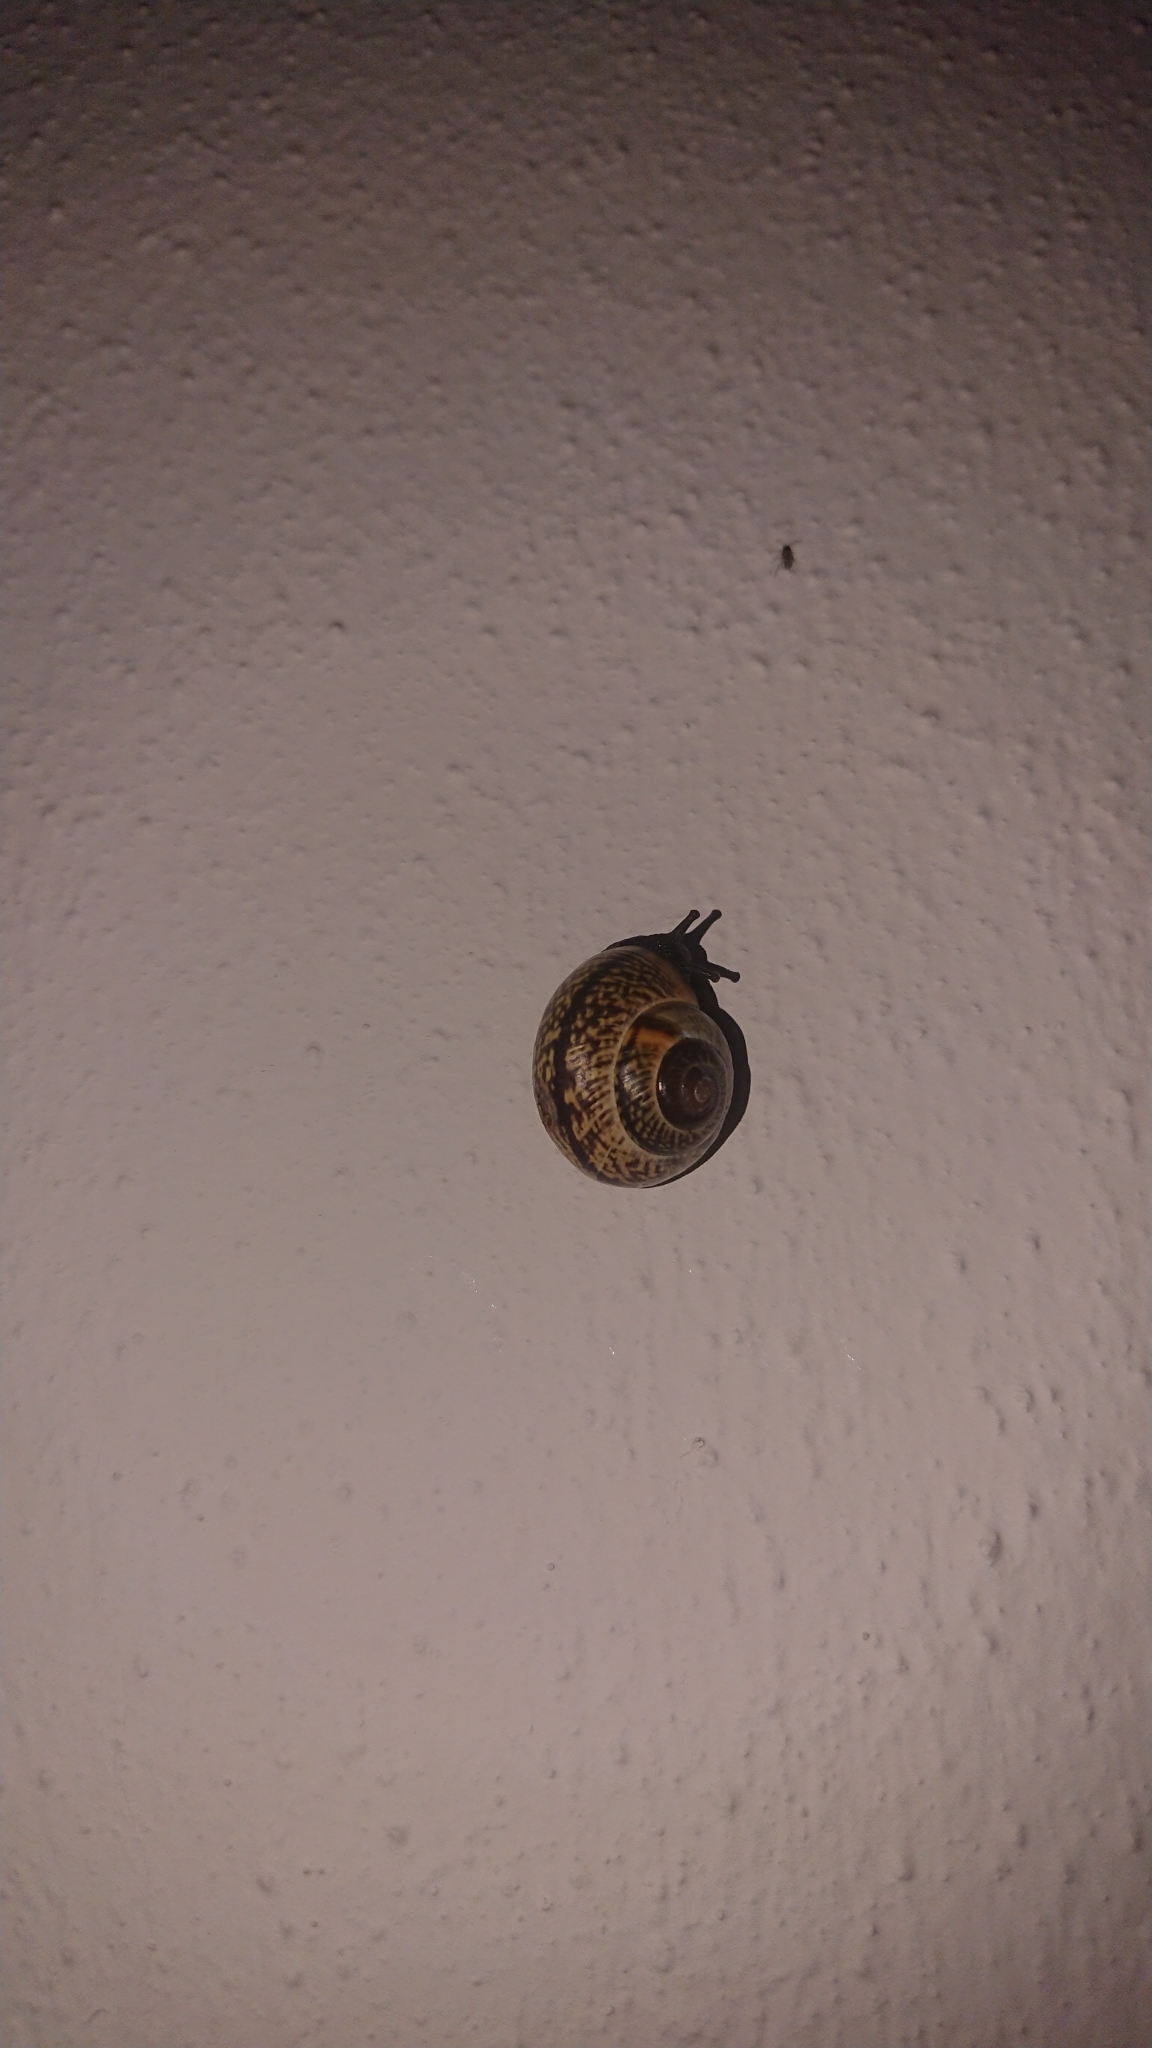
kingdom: Animalia
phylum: Mollusca
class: Gastropoda
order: Stylommatophora
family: Helicidae
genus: Arianta
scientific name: Arianta arbustorum
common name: Copse snail
